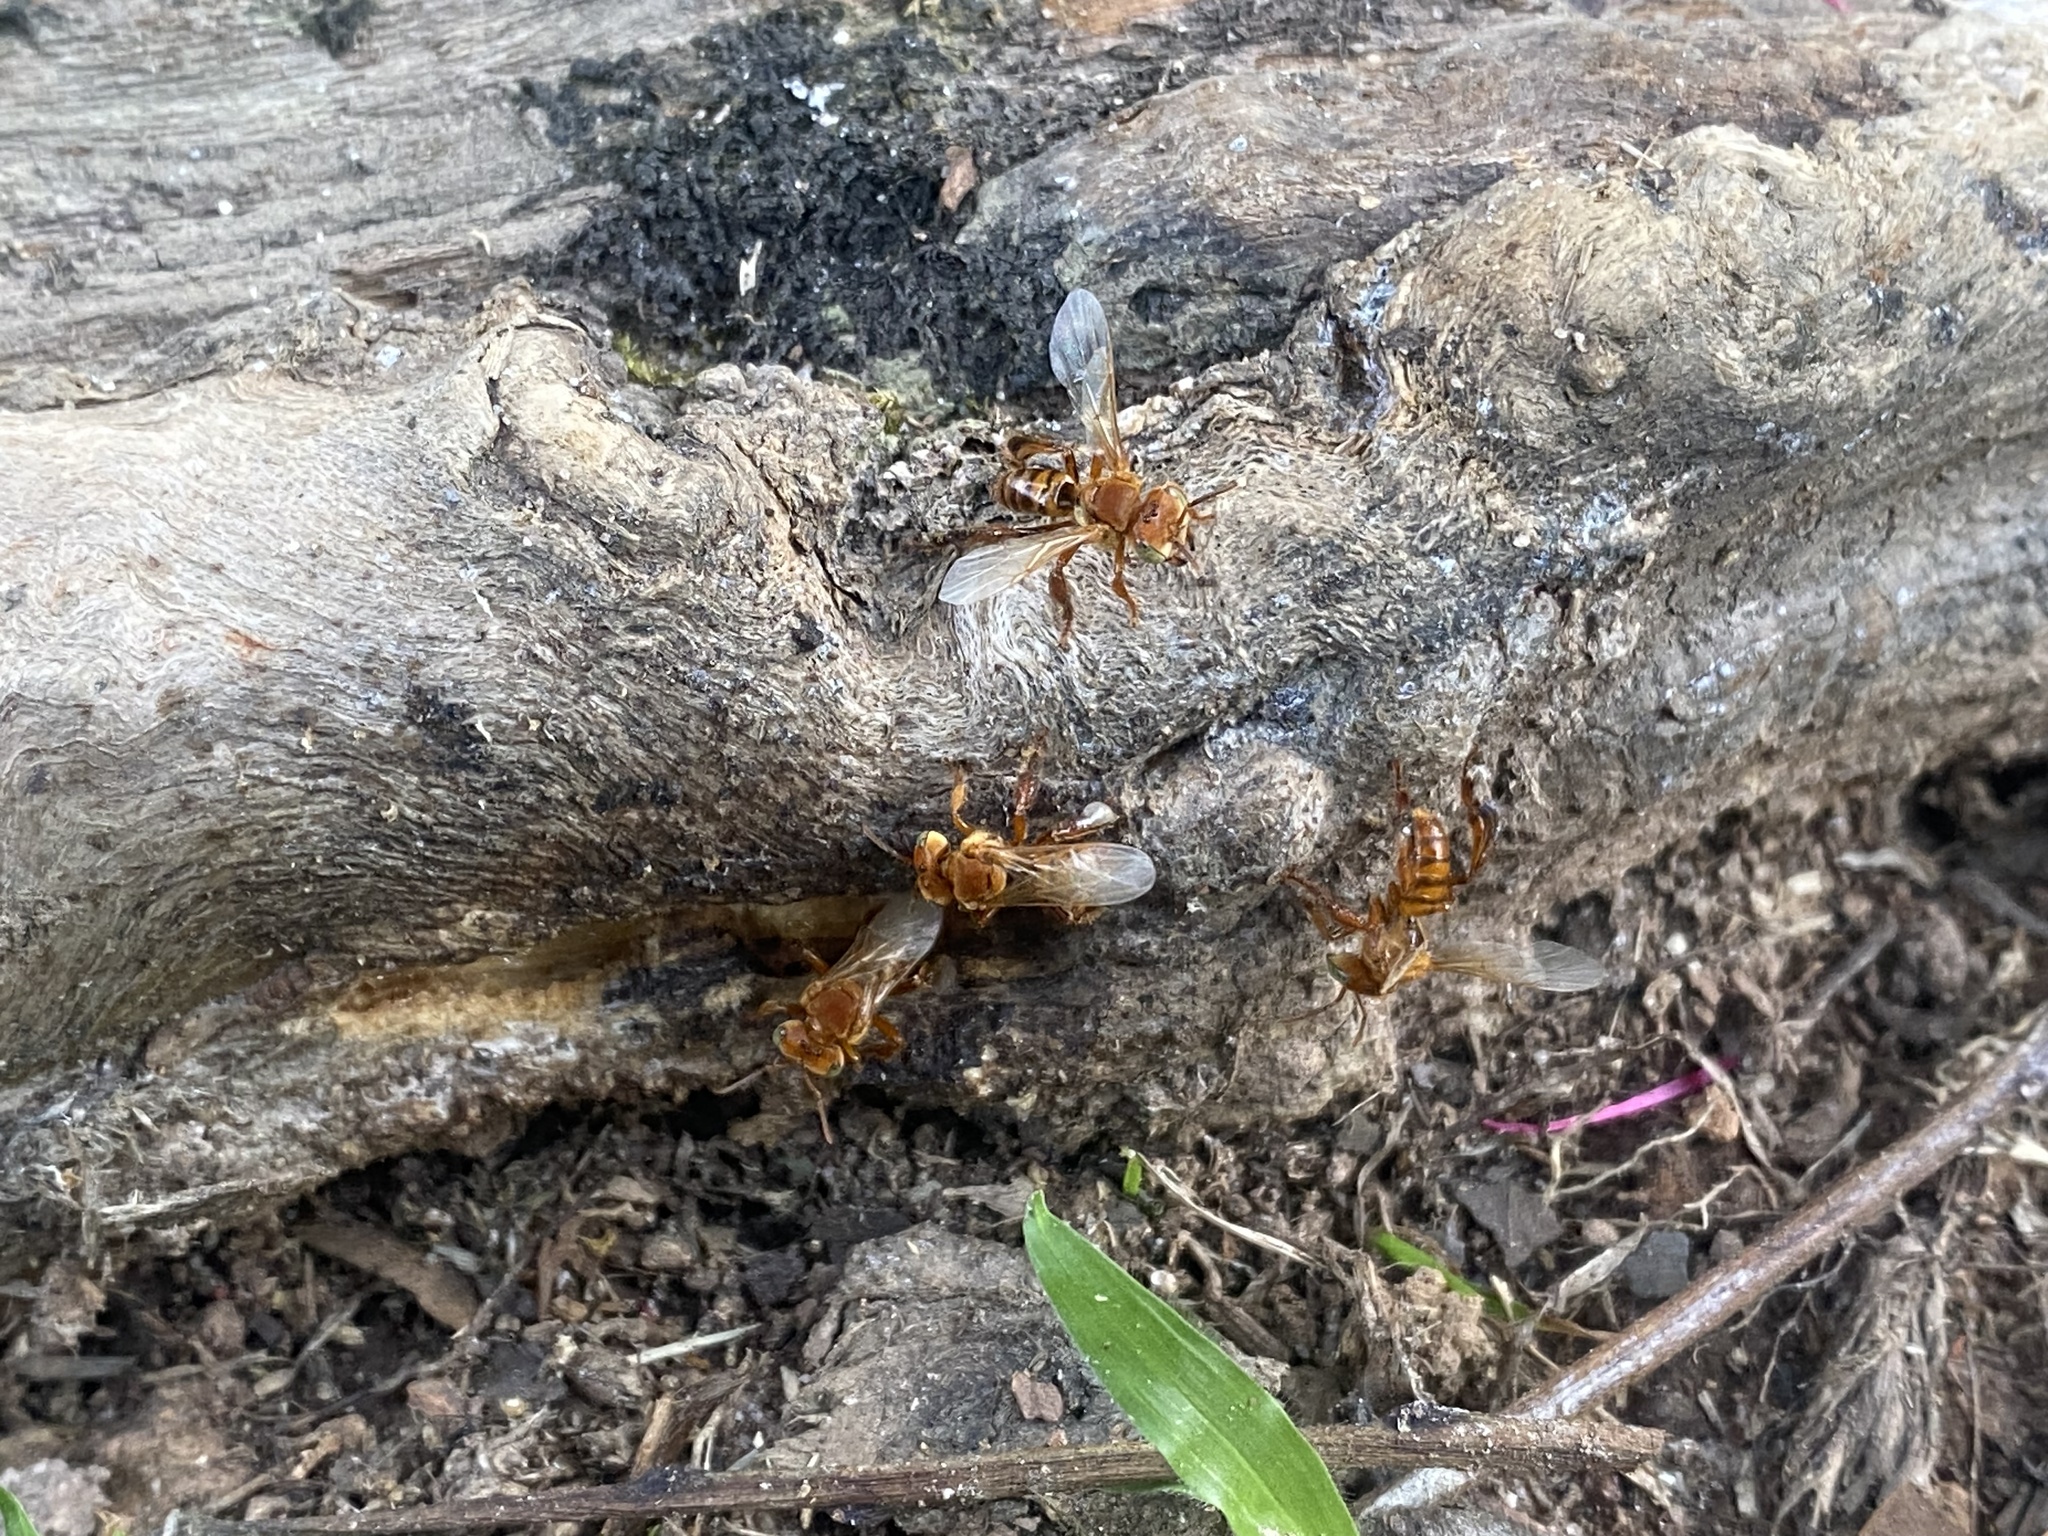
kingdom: Animalia
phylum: Arthropoda
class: Insecta
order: Hymenoptera
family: Apidae
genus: Trigona
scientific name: Trigona dallatorreana
